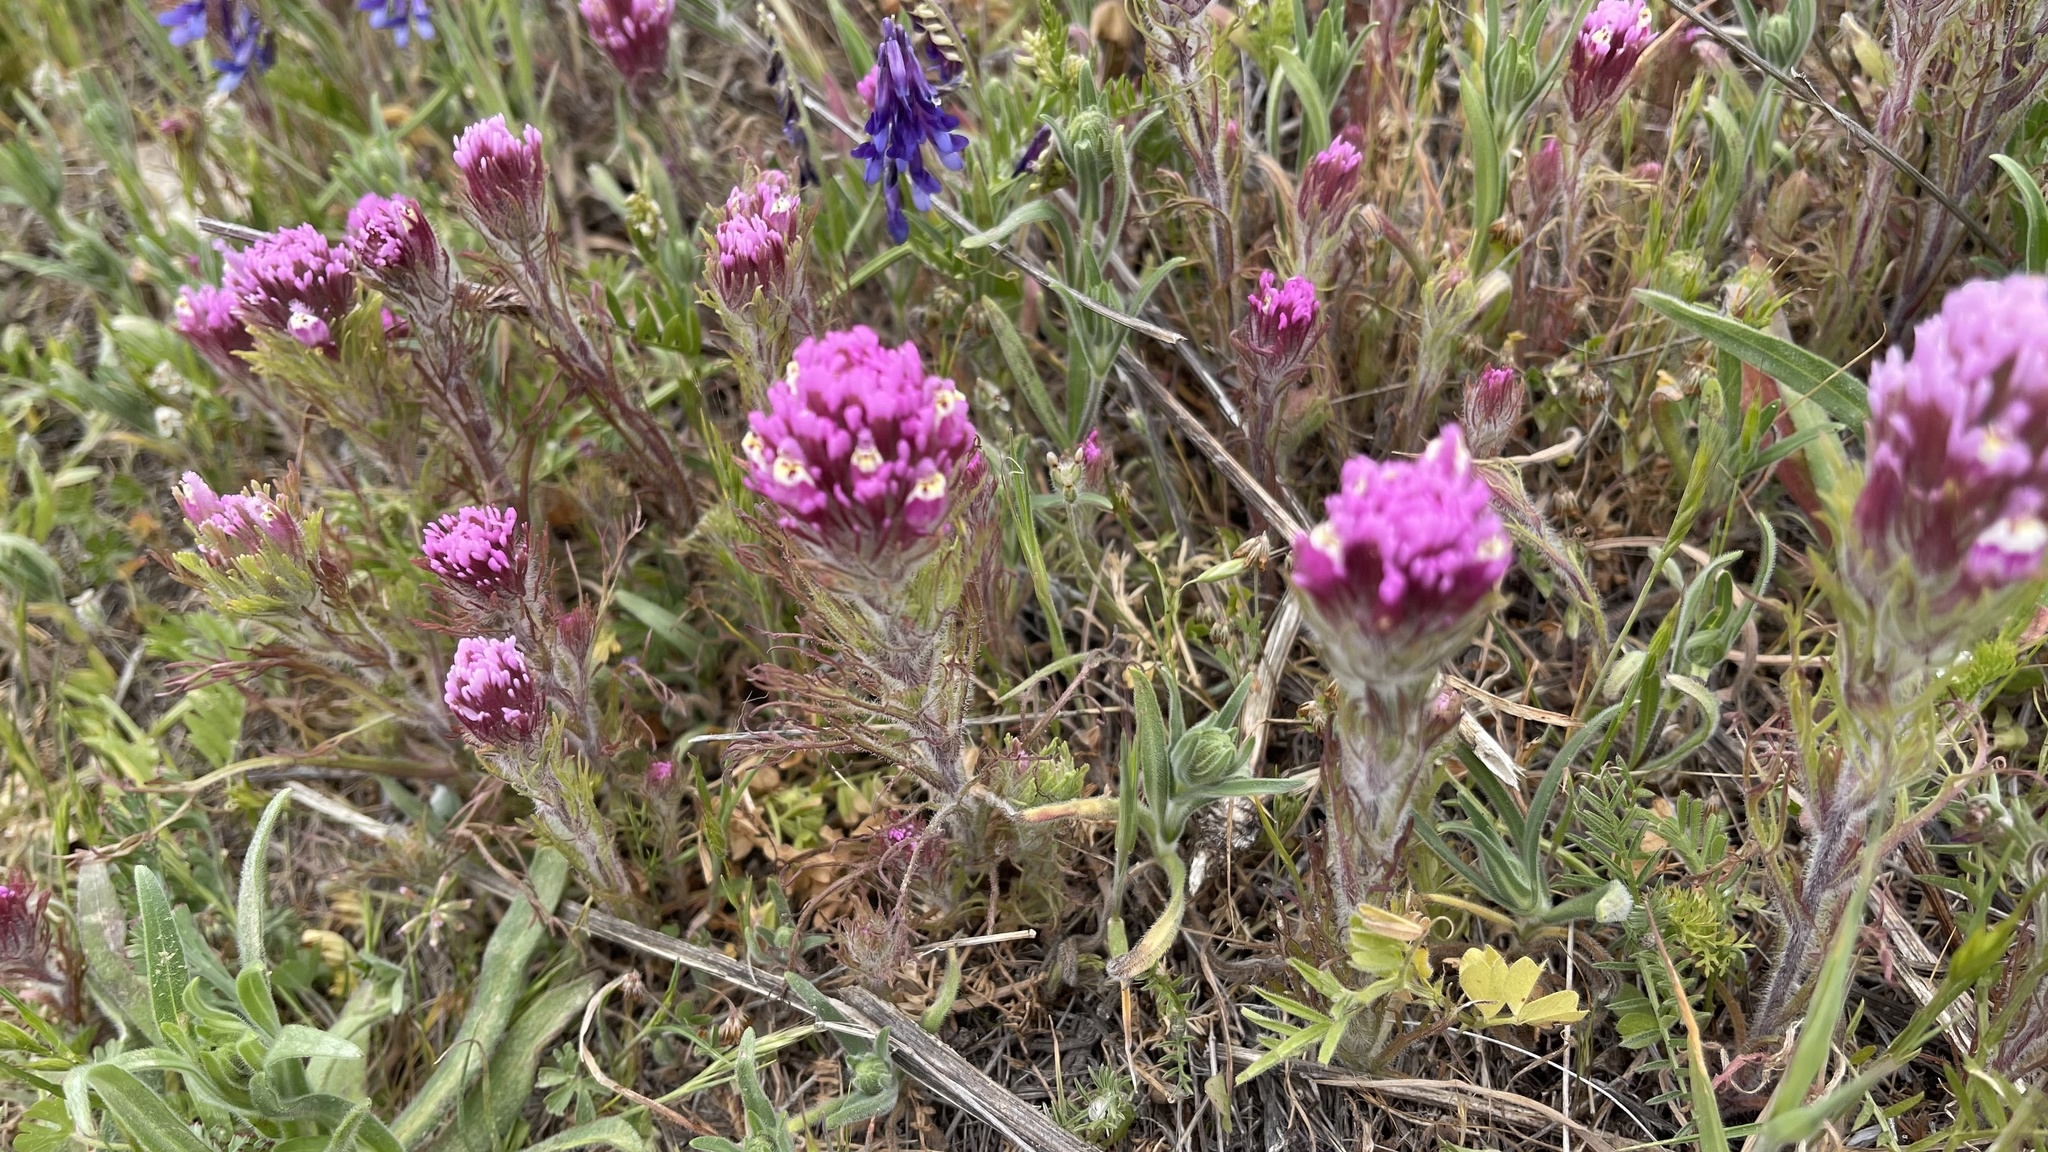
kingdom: Plantae
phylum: Tracheophyta
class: Magnoliopsida
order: Lamiales
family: Orobanchaceae
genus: Castilleja
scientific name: Castilleja exserta
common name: Purple owl-clover
